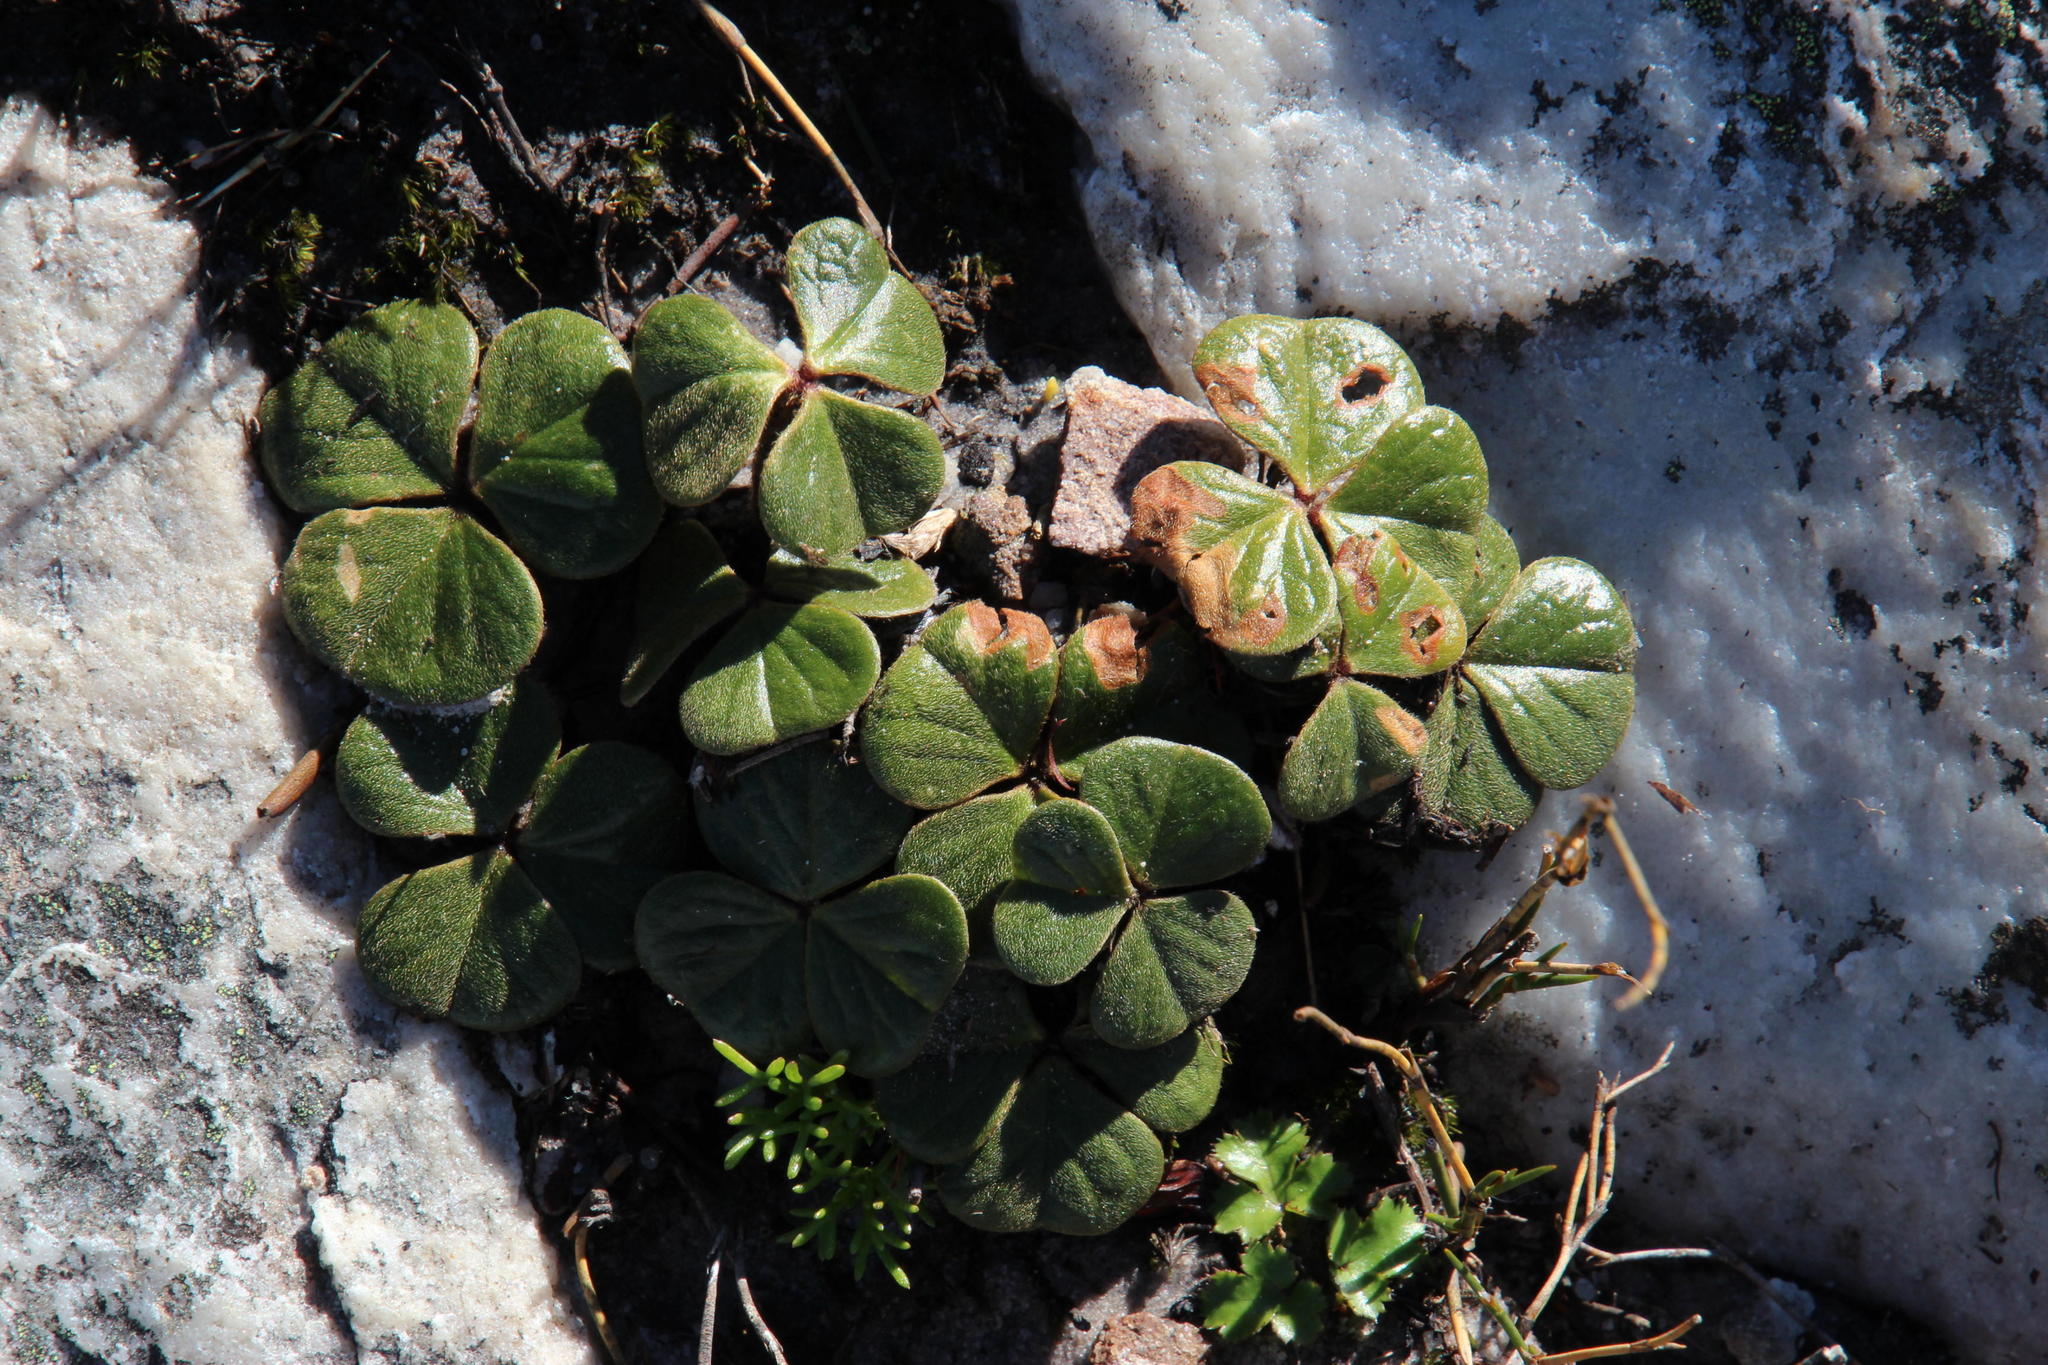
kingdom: Plantae
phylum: Tracheophyta
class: Magnoliopsida
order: Oxalidales
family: Oxalidaceae
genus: Oxalis
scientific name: Oxalis truncatula
